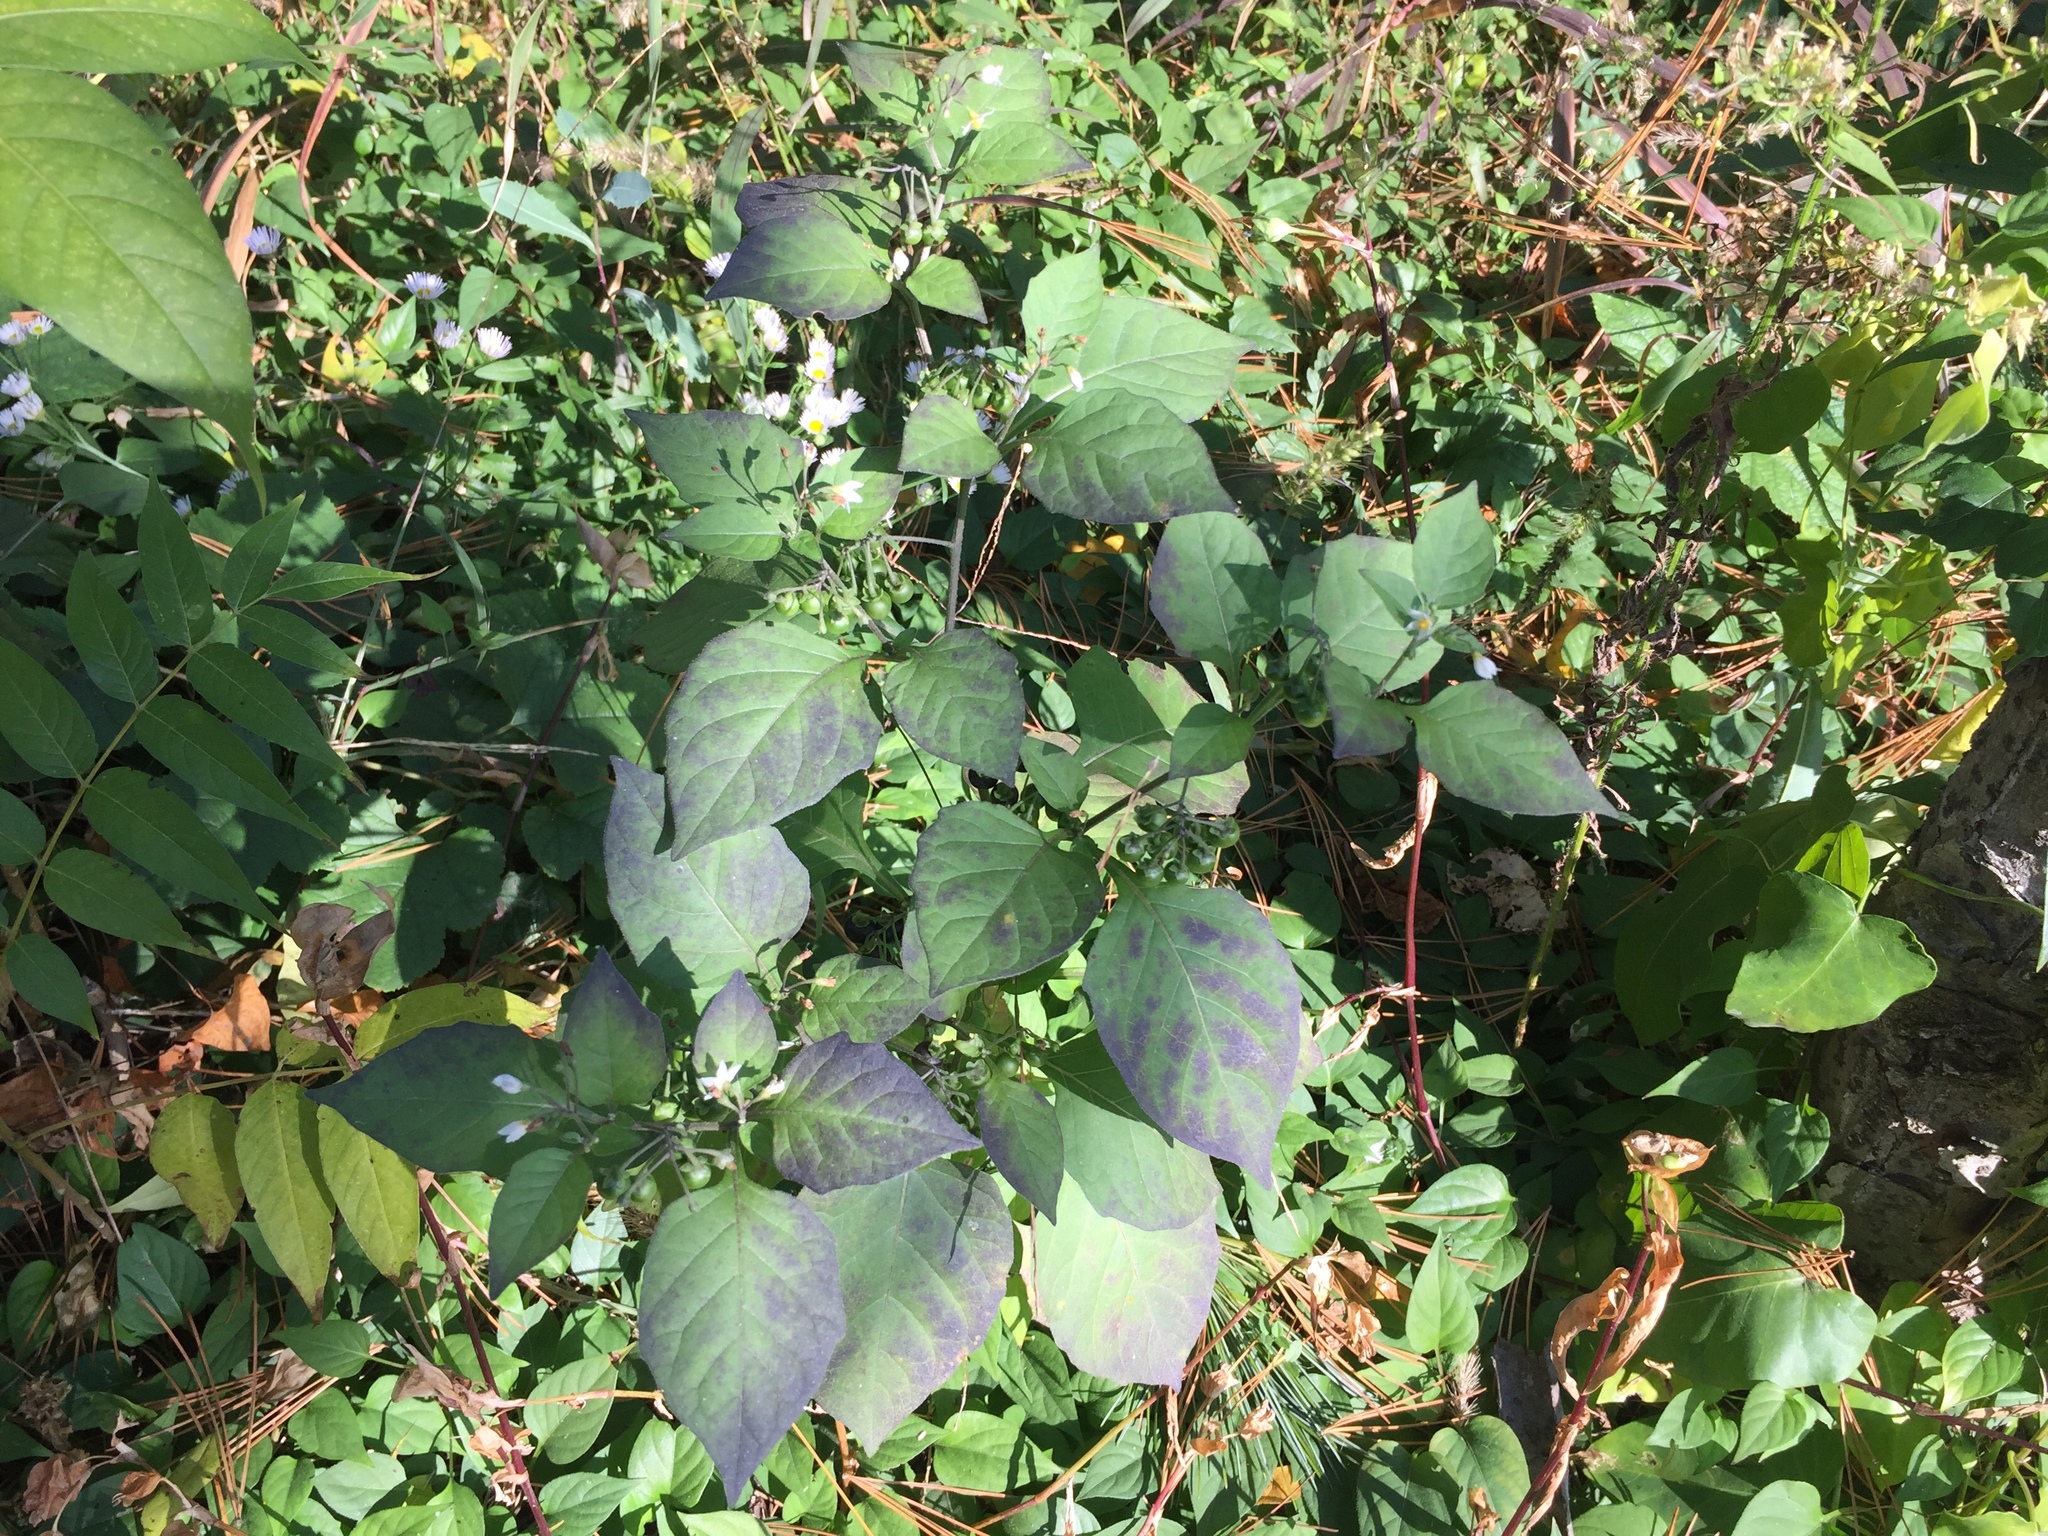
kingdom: Plantae
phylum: Tracheophyta
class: Magnoliopsida
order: Solanales
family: Solanaceae
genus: Solanum
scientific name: Solanum nigrum
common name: Black nightshade
